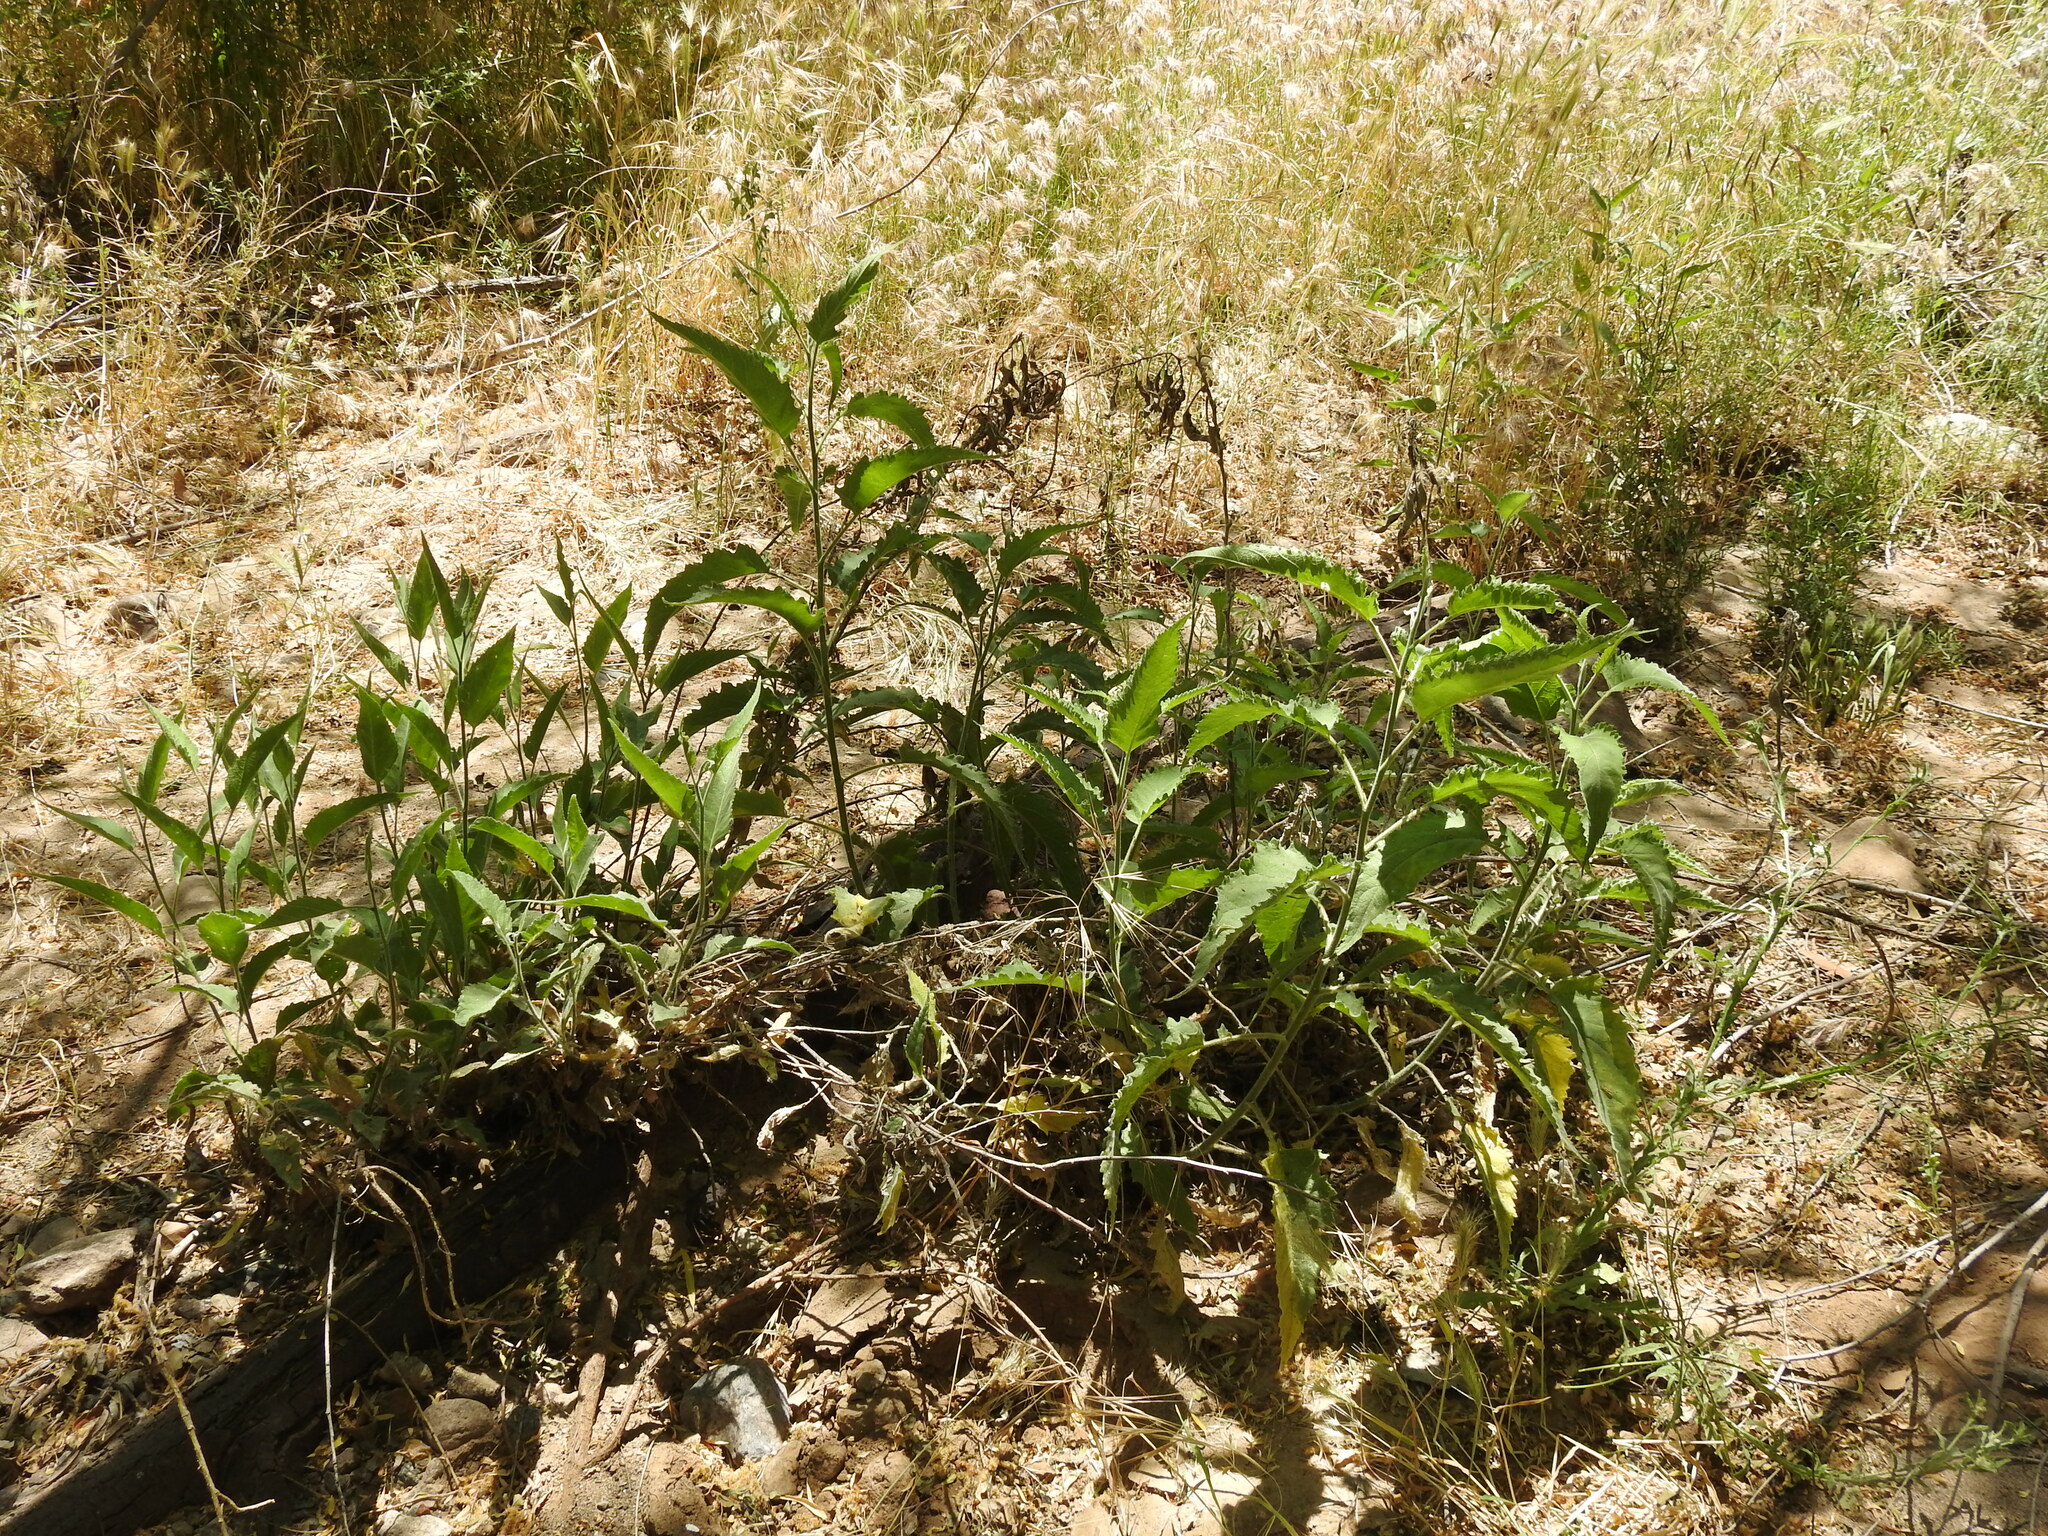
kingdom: Plantae
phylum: Tracheophyta
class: Magnoliopsida
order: Asterales
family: Asteraceae
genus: Ambrosia
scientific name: Ambrosia ambrosioides
